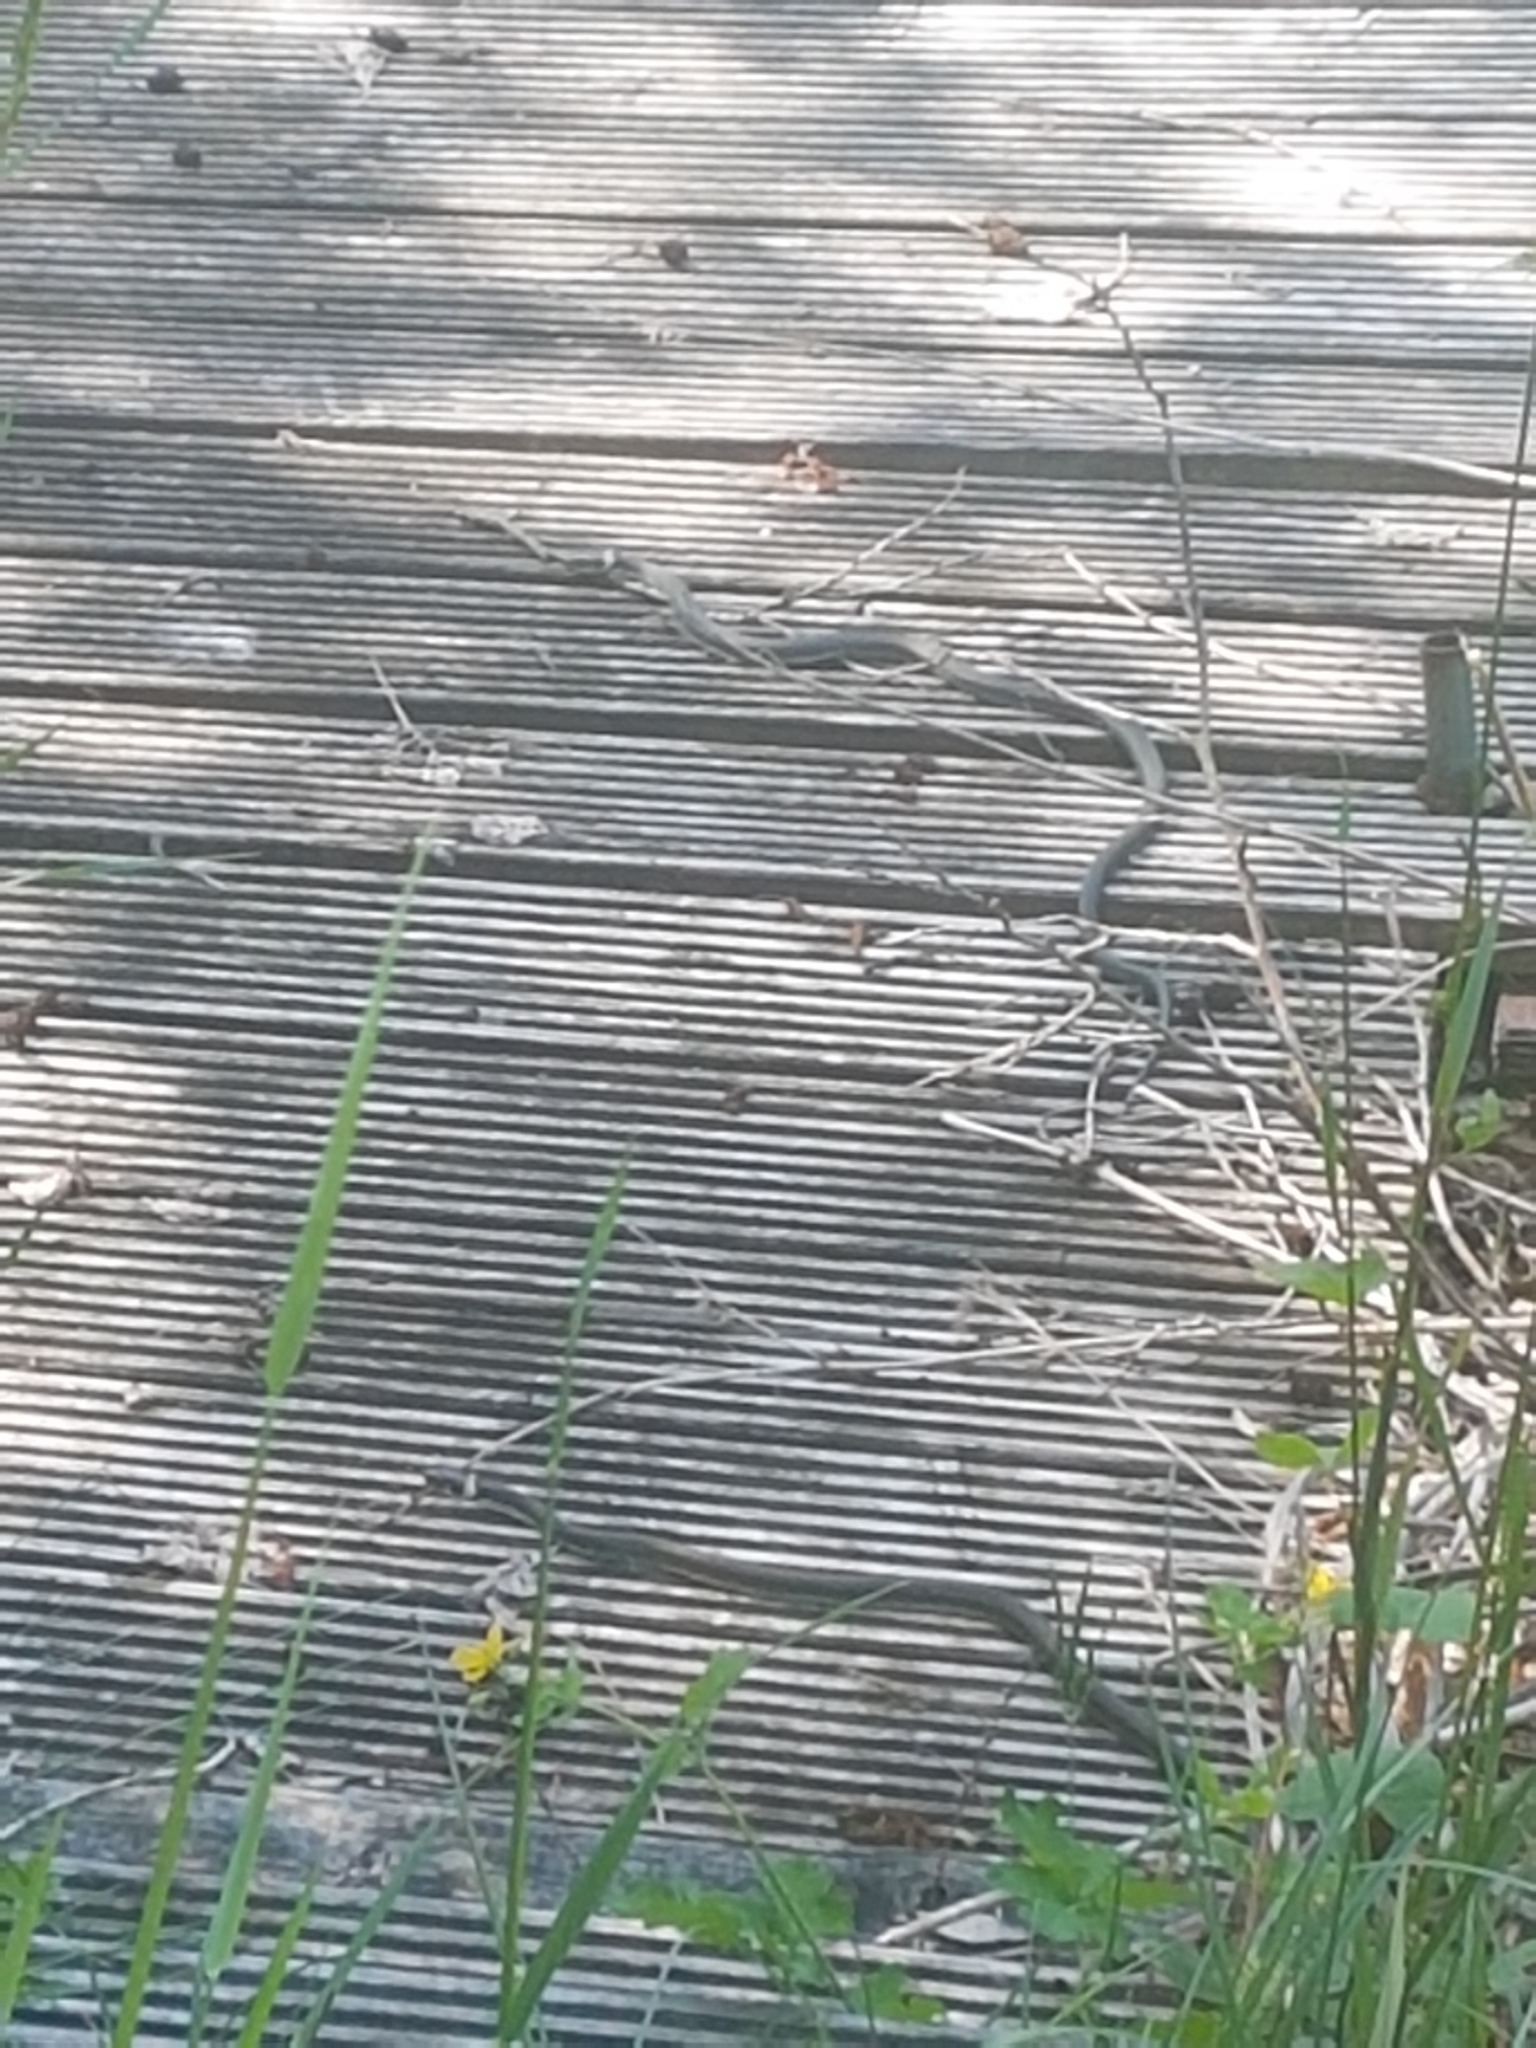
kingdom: Animalia
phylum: Chordata
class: Squamata
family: Colubridae
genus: Natrix
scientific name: Natrix natrix
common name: Grass snake
